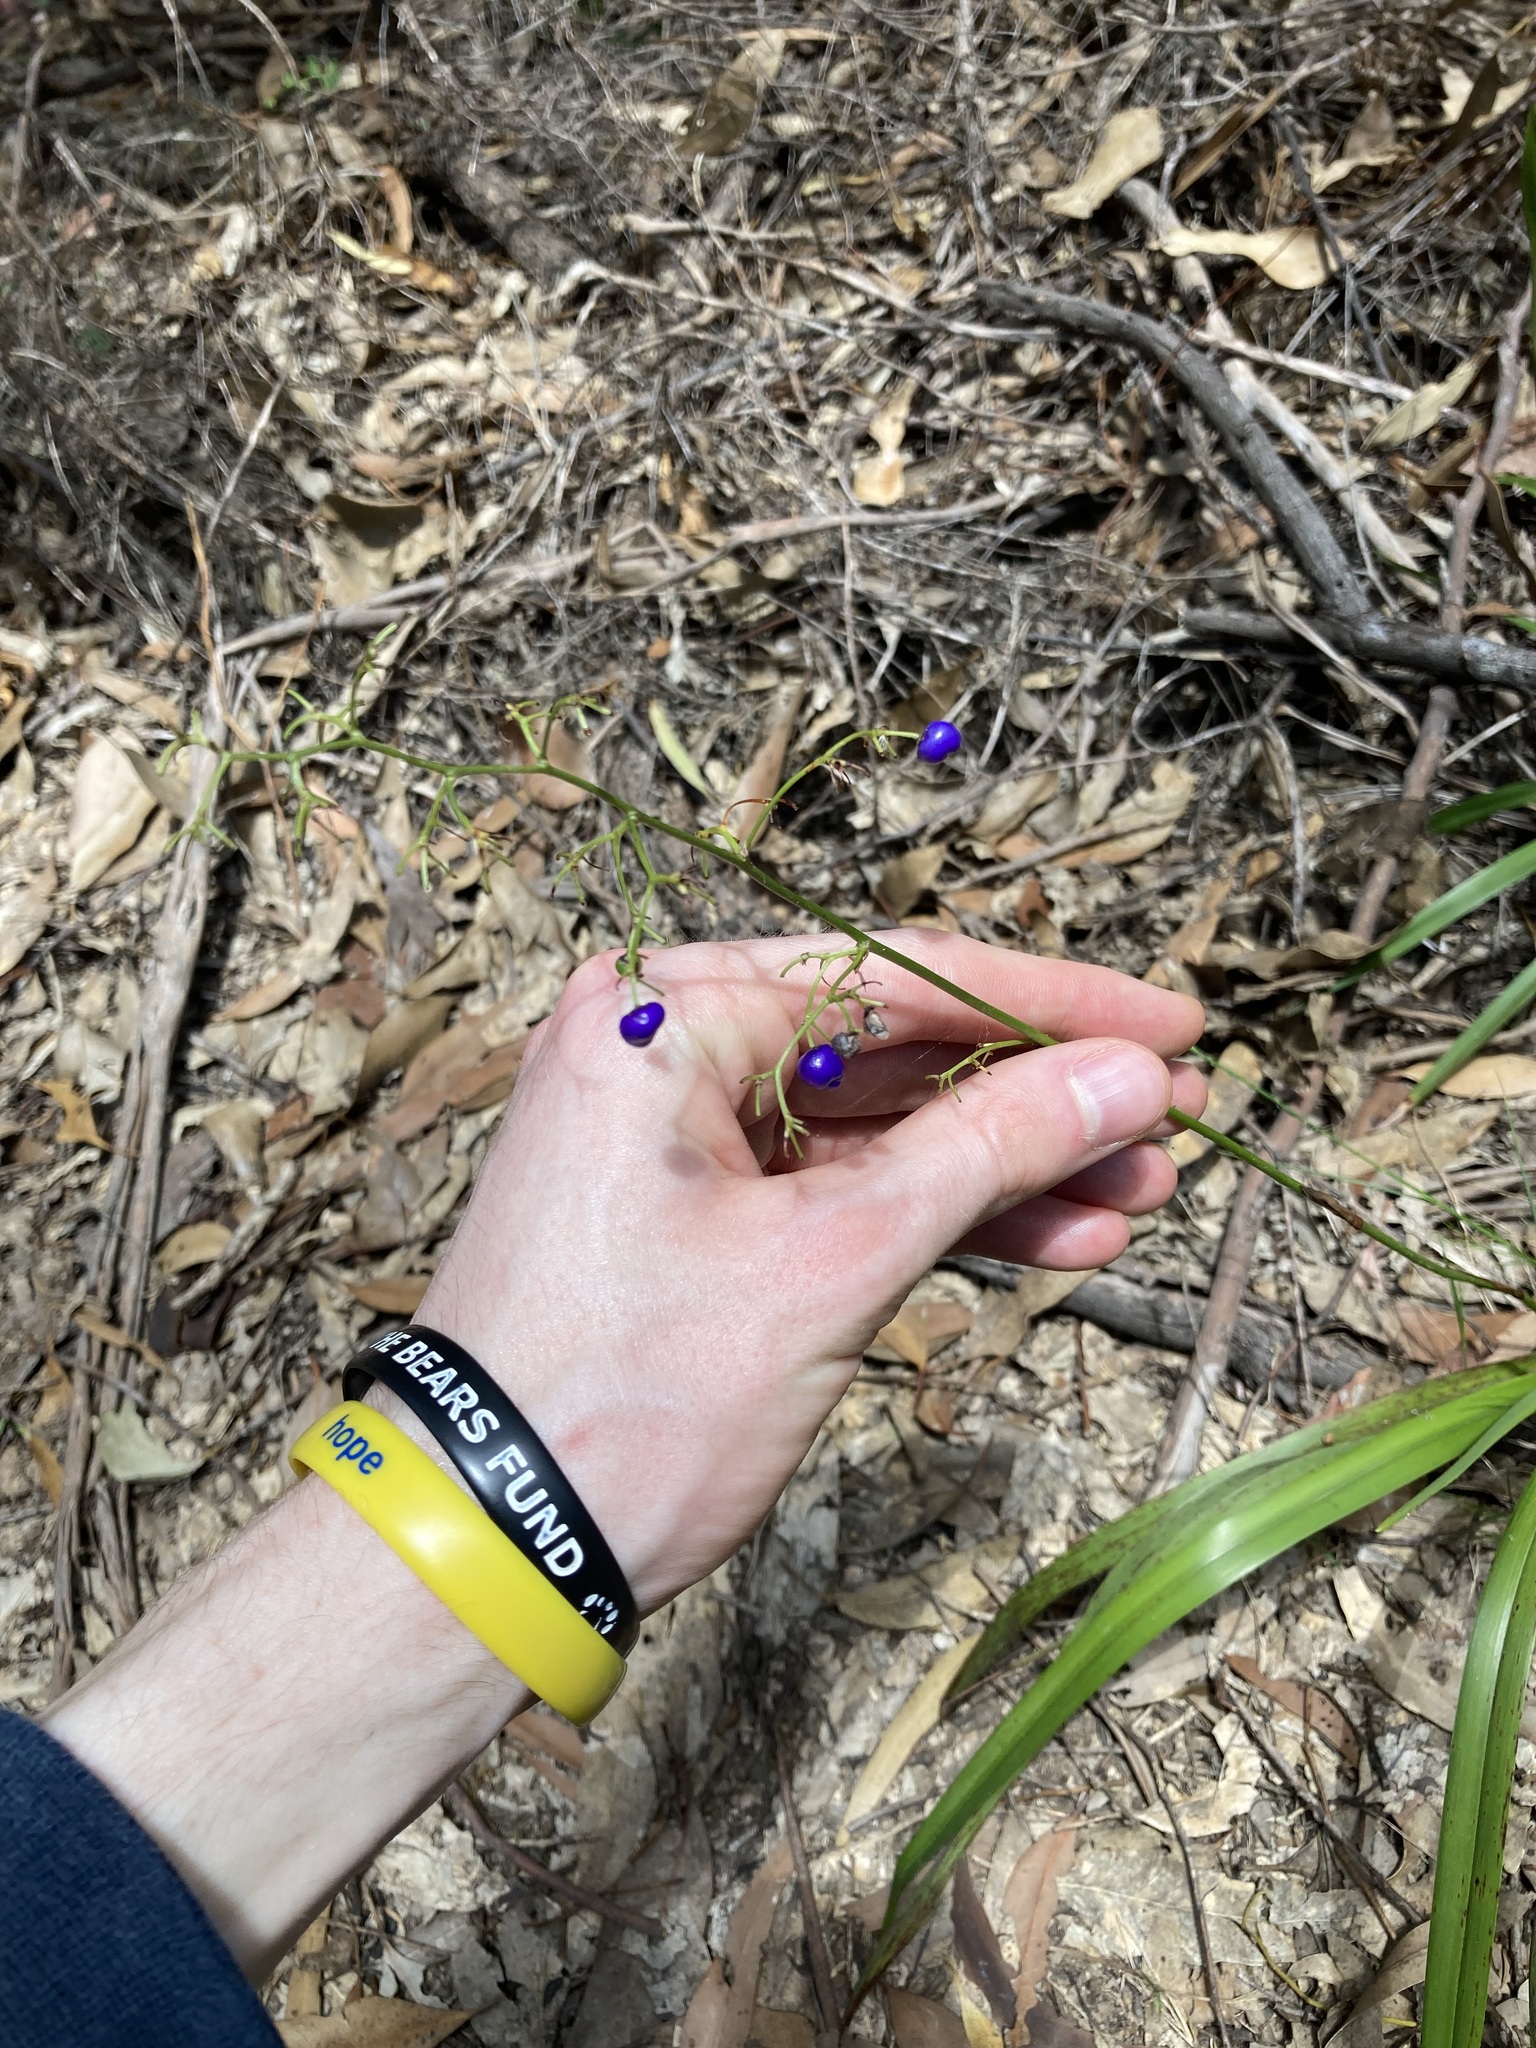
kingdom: Plantae
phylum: Tracheophyta
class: Liliopsida
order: Asparagales
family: Asphodelaceae
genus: Dianella
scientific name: Dianella caerulea
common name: Blue flax-lily
